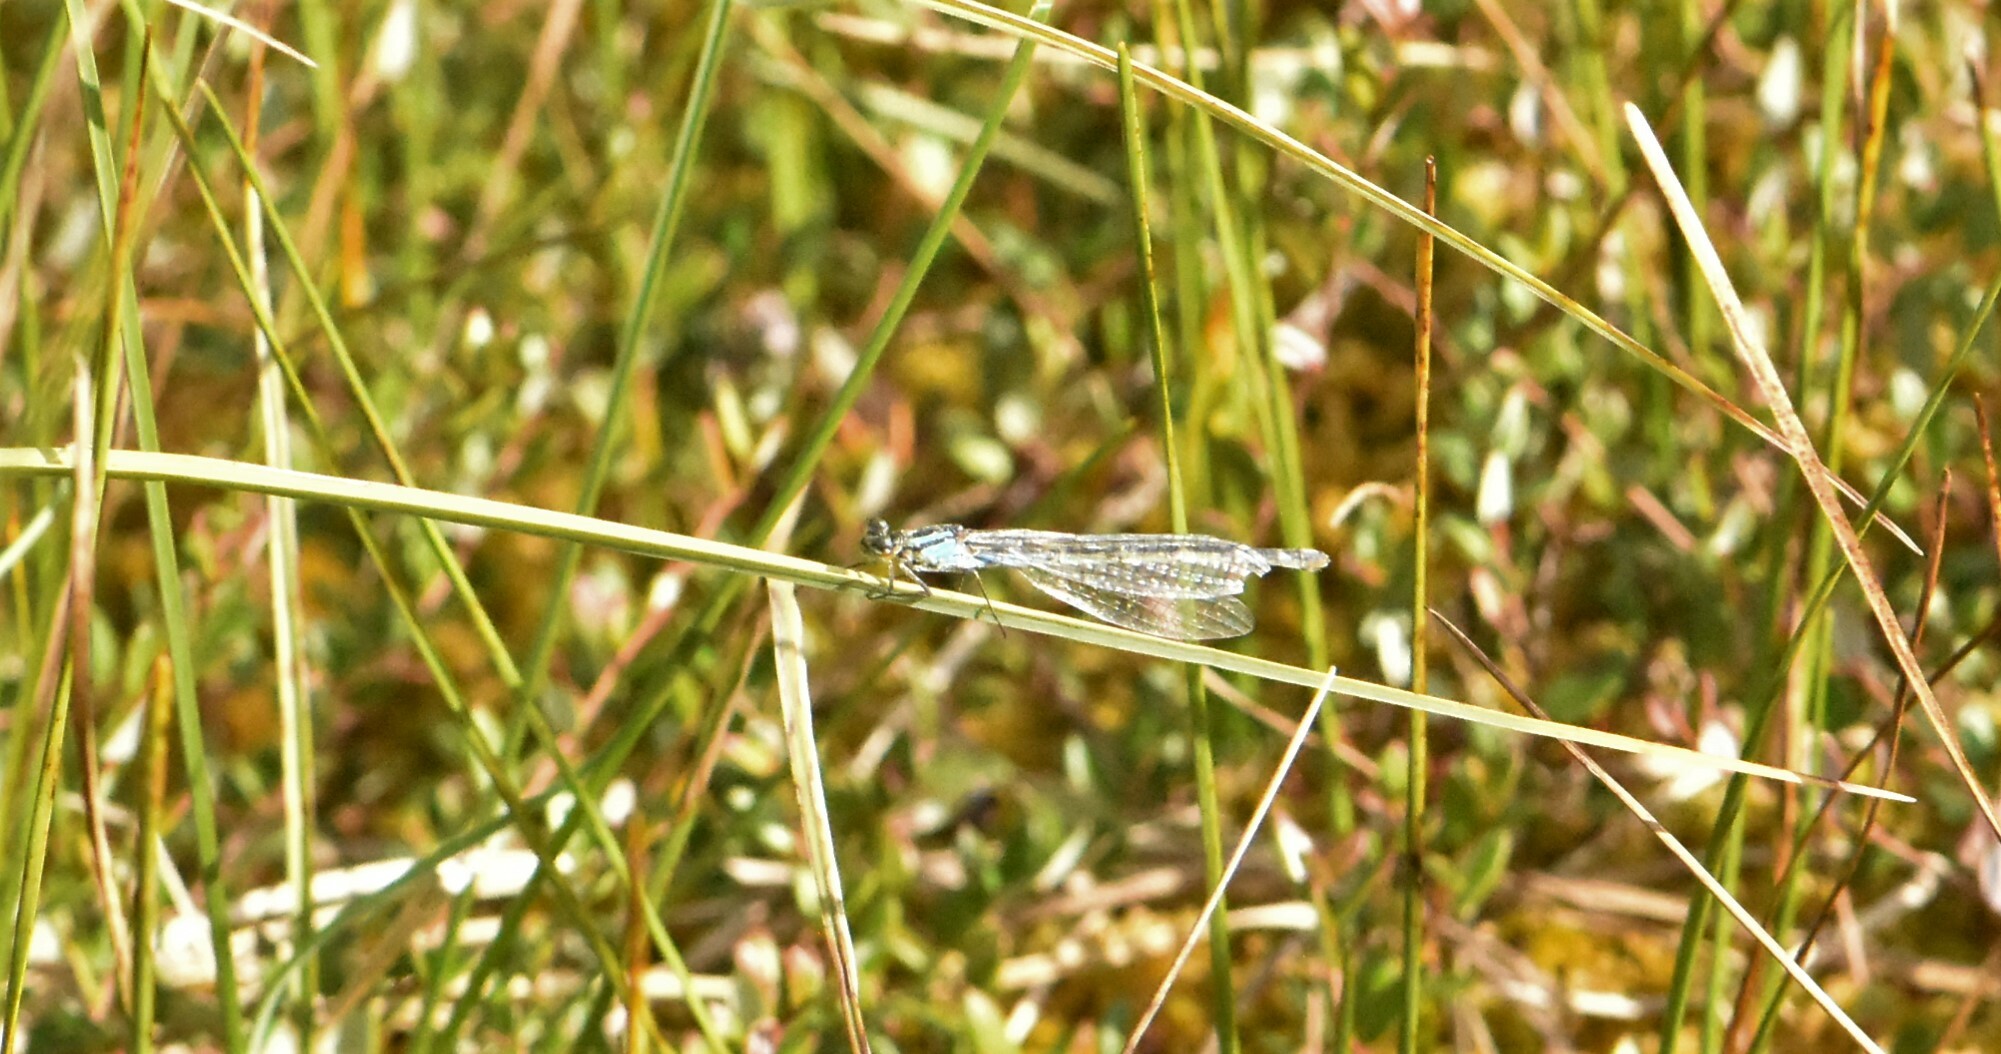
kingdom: Animalia
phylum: Arthropoda
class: Insecta
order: Odonata
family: Coenagrionidae
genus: Enallagma
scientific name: Enallagma cyathigerum
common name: Common blue damselfly
